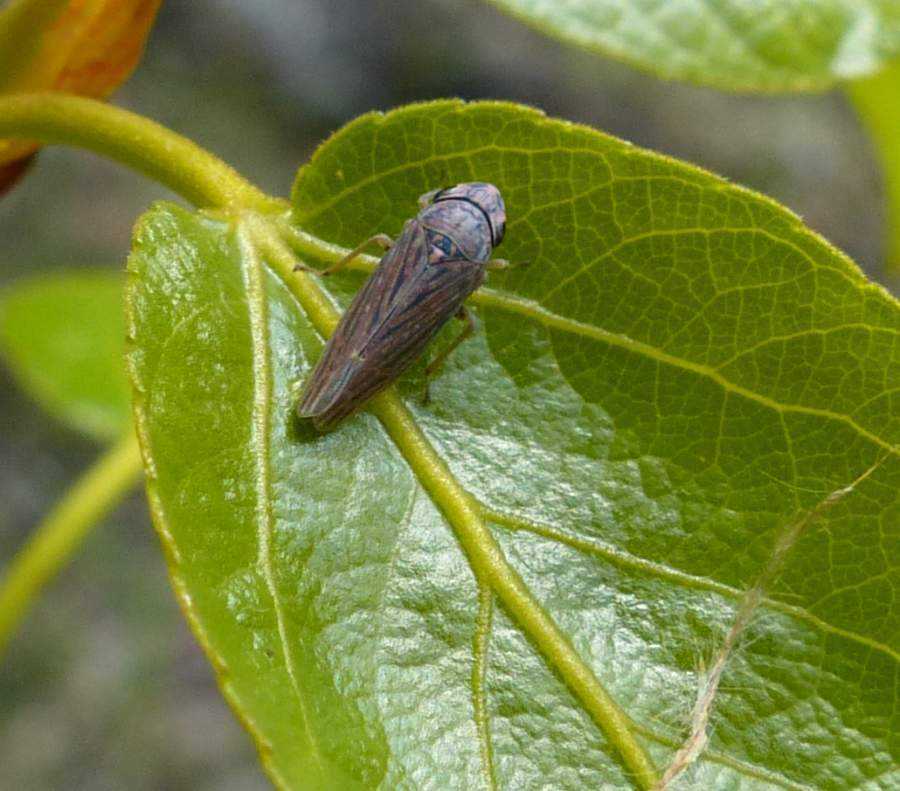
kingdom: Animalia
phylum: Arthropoda
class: Insecta
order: Hemiptera
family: Cicadellidae
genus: Neokolla
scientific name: Neokolla hieroglyphica
